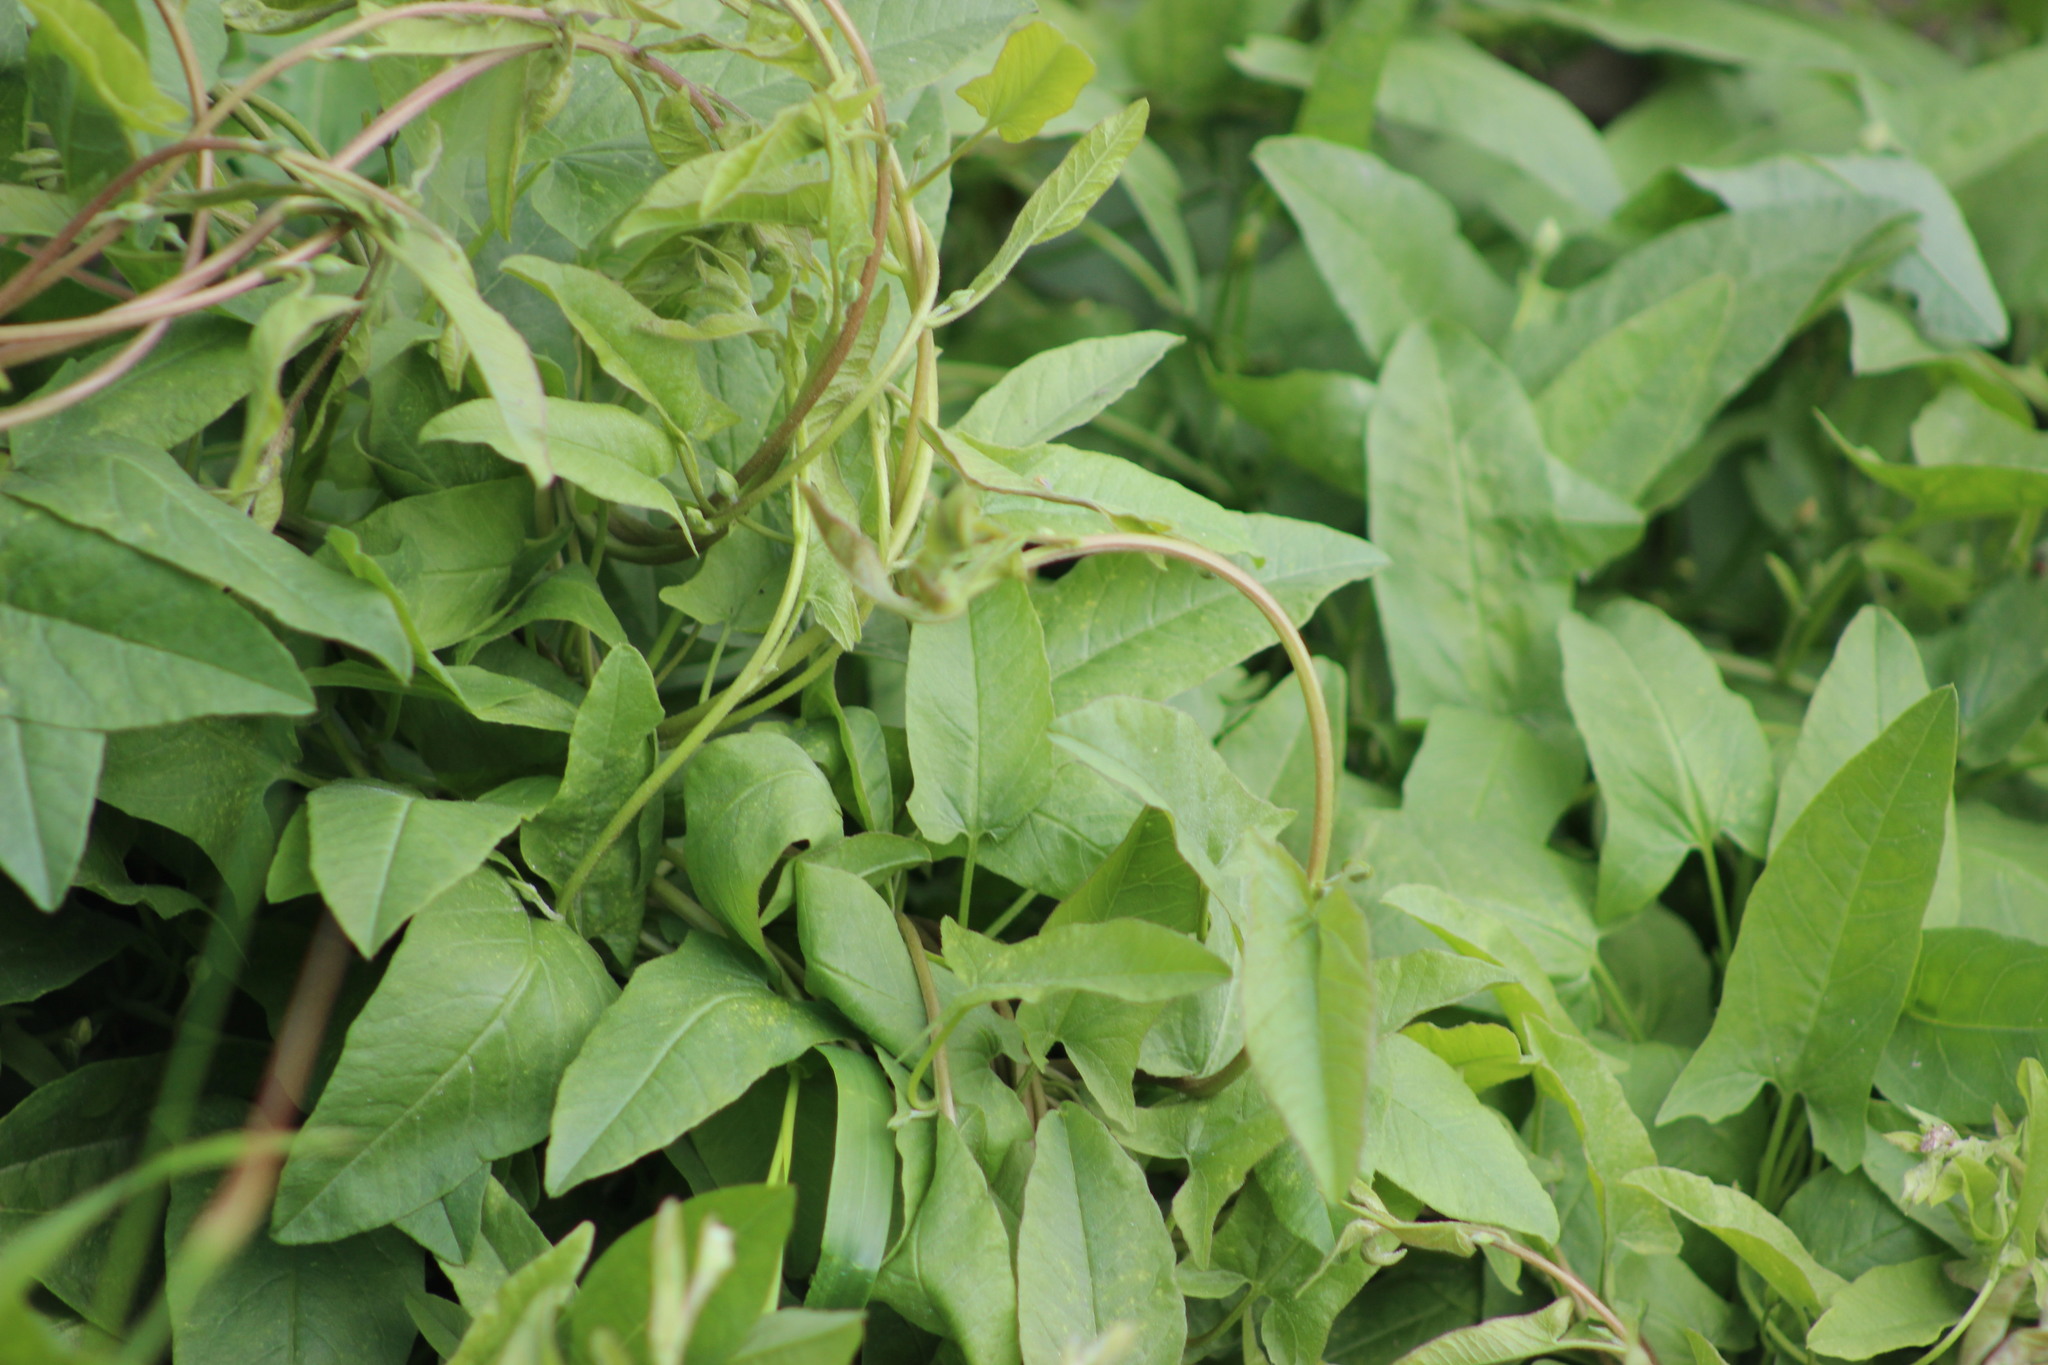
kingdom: Plantae
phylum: Tracheophyta
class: Magnoliopsida
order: Solanales
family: Convolvulaceae
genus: Convolvulus
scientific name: Convolvulus arvensis
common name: Field bindweed
